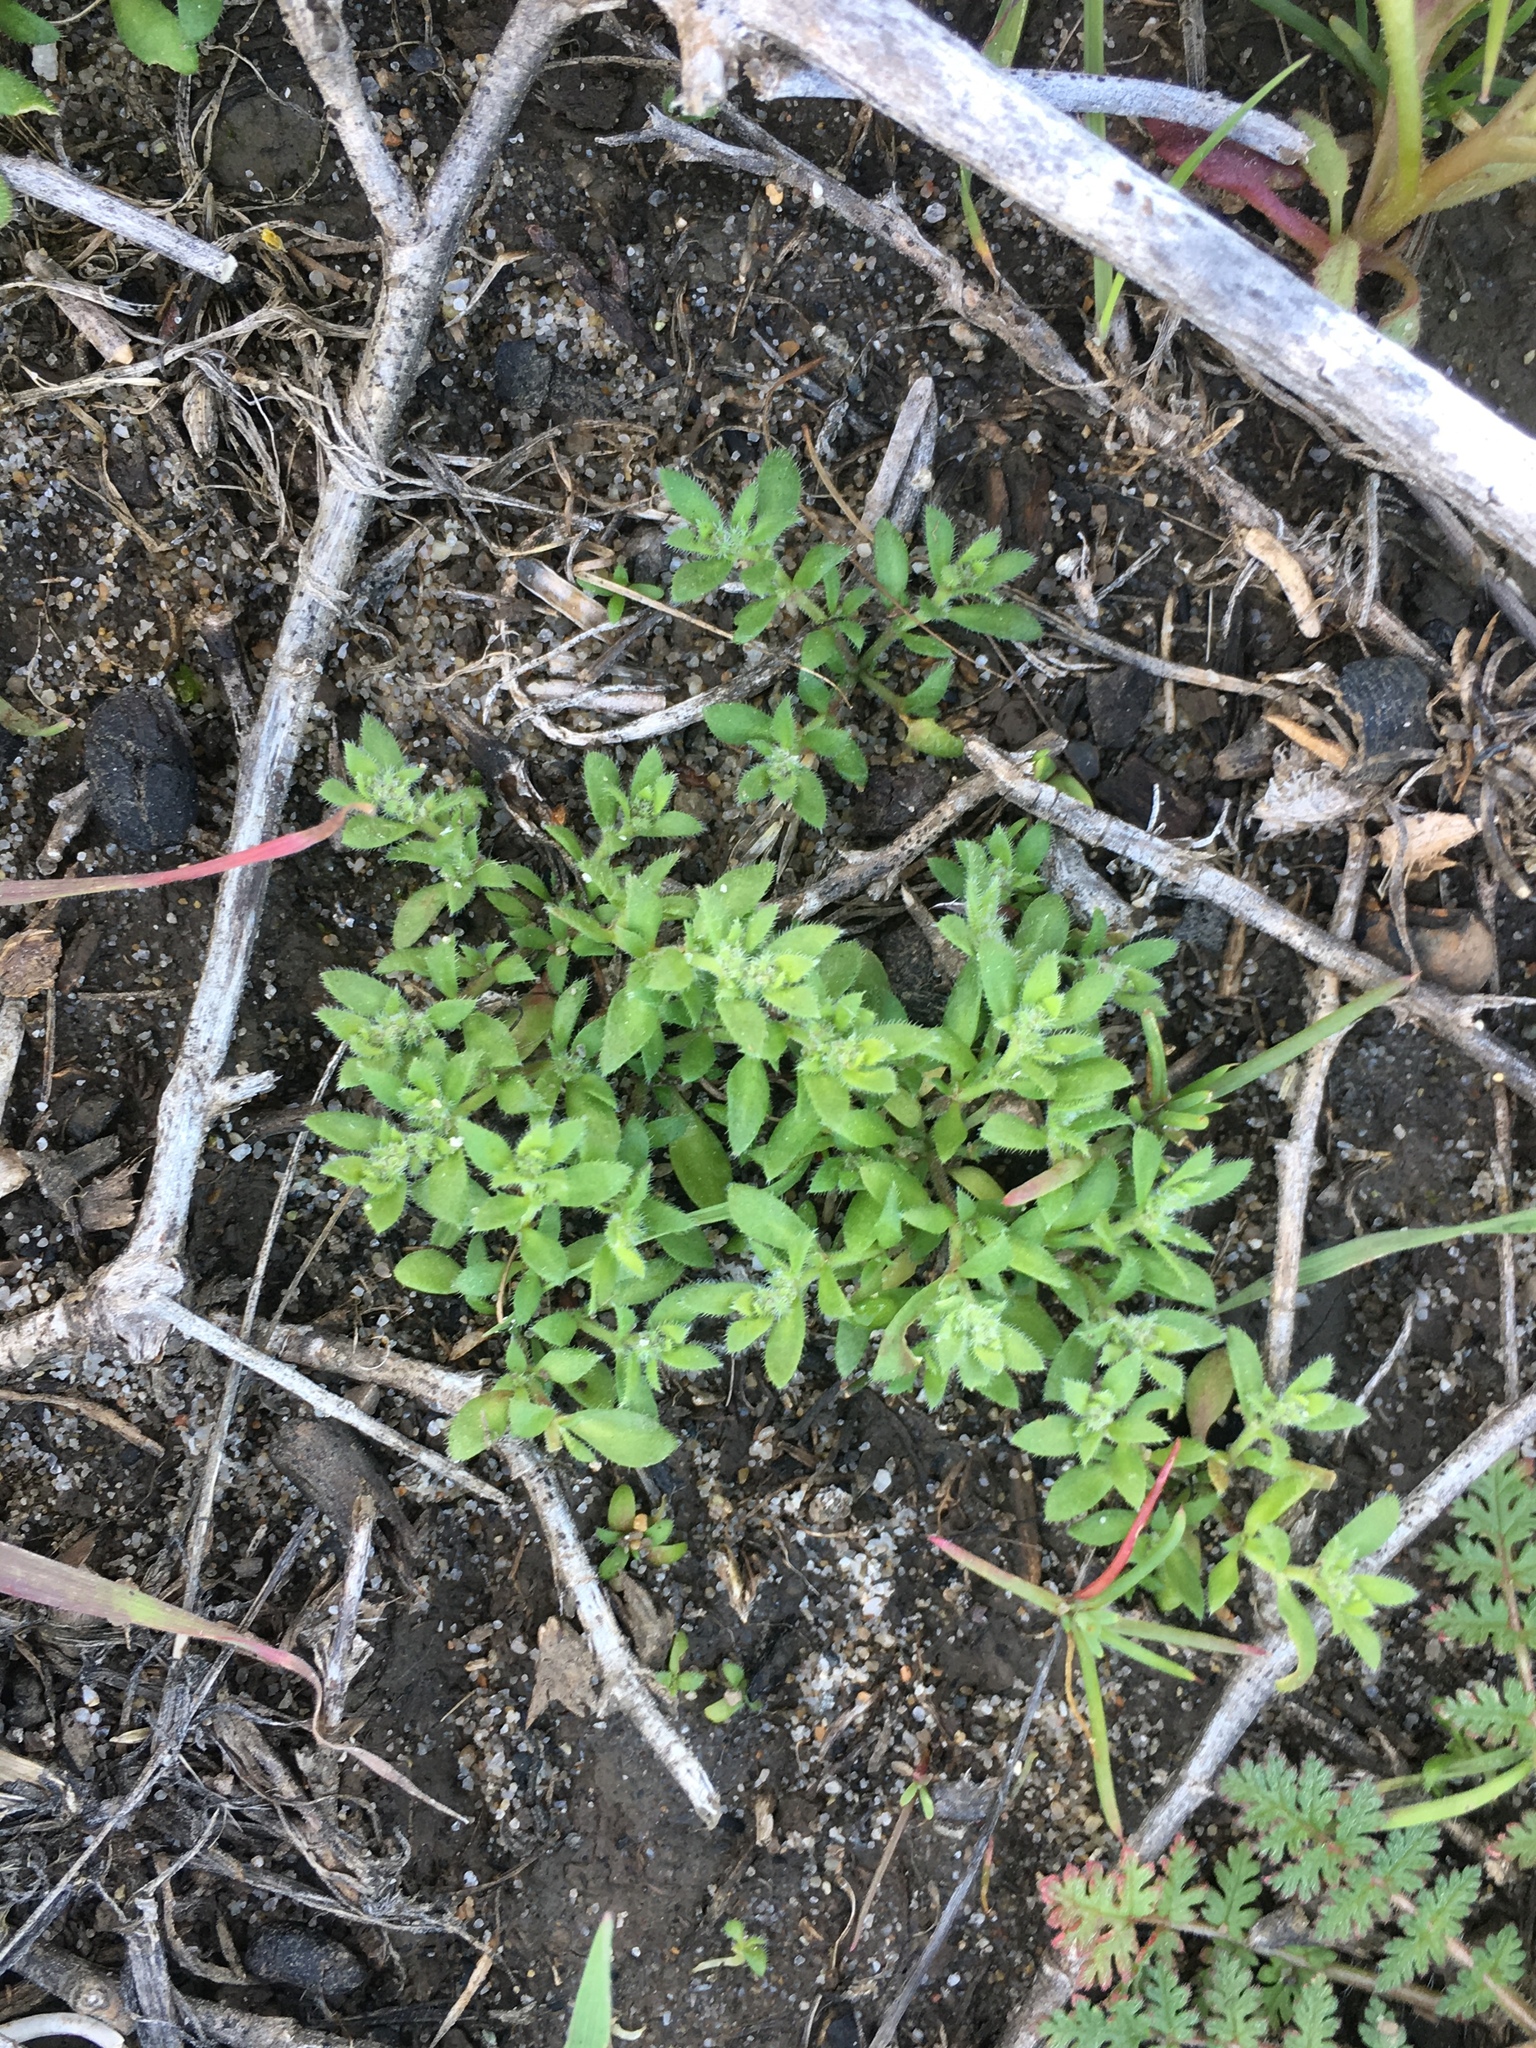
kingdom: Plantae
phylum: Tracheophyta
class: Magnoliopsida
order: Caryophyllales
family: Caryophyllaceae
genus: Herniaria
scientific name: Herniaria hirsuta
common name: Hairy rupturewort
